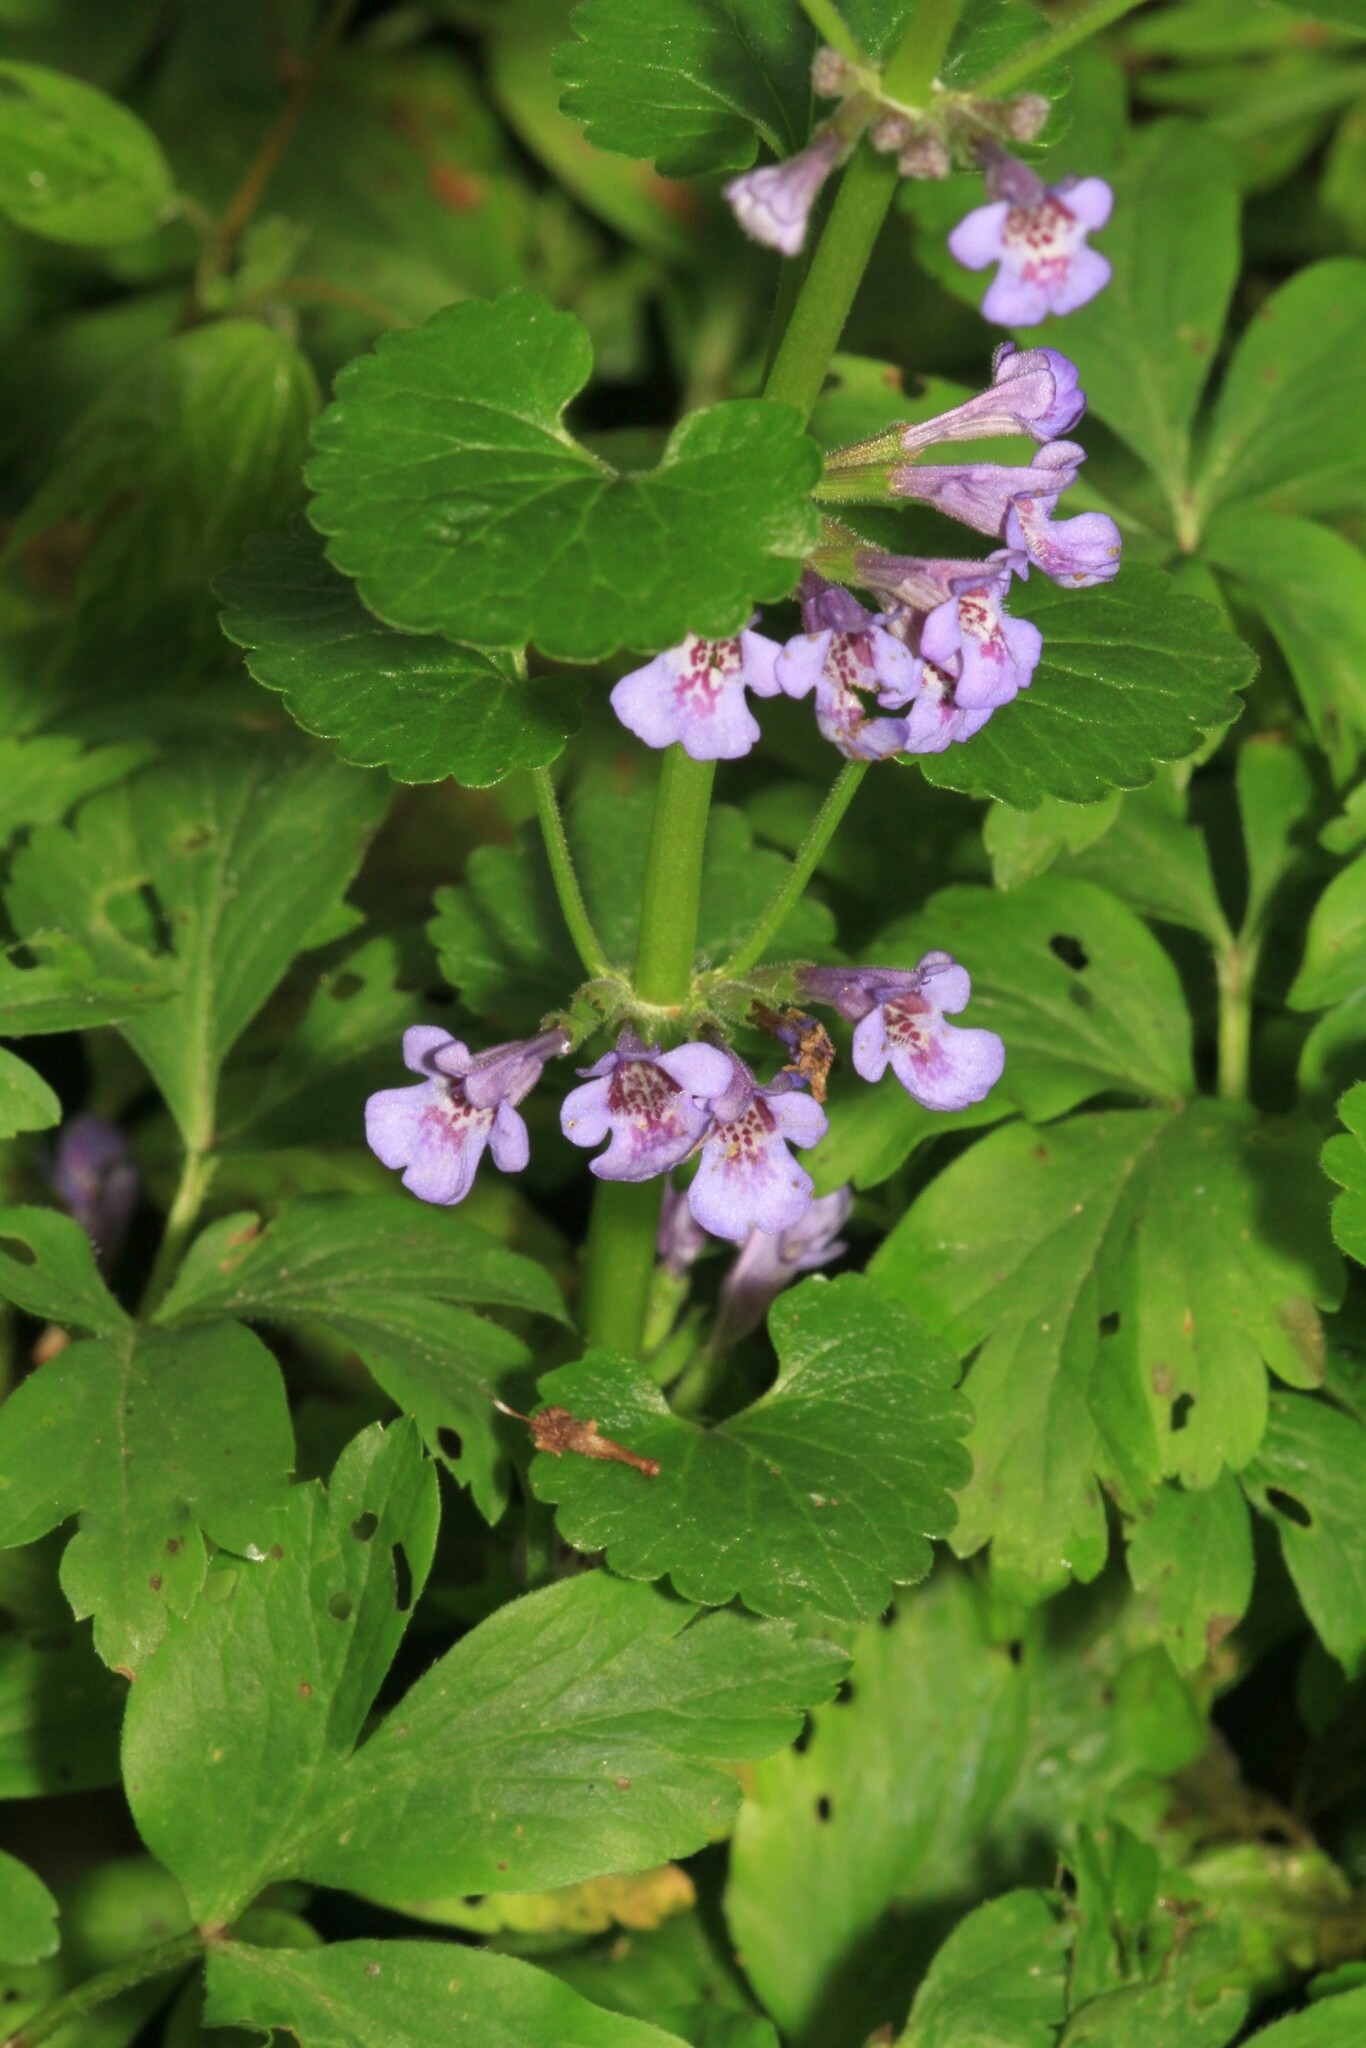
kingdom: Plantae
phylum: Tracheophyta
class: Magnoliopsida
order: Lamiales
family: Lamiaceae
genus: Glechoma
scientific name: Glechoma hederacea
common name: Ground ivy
